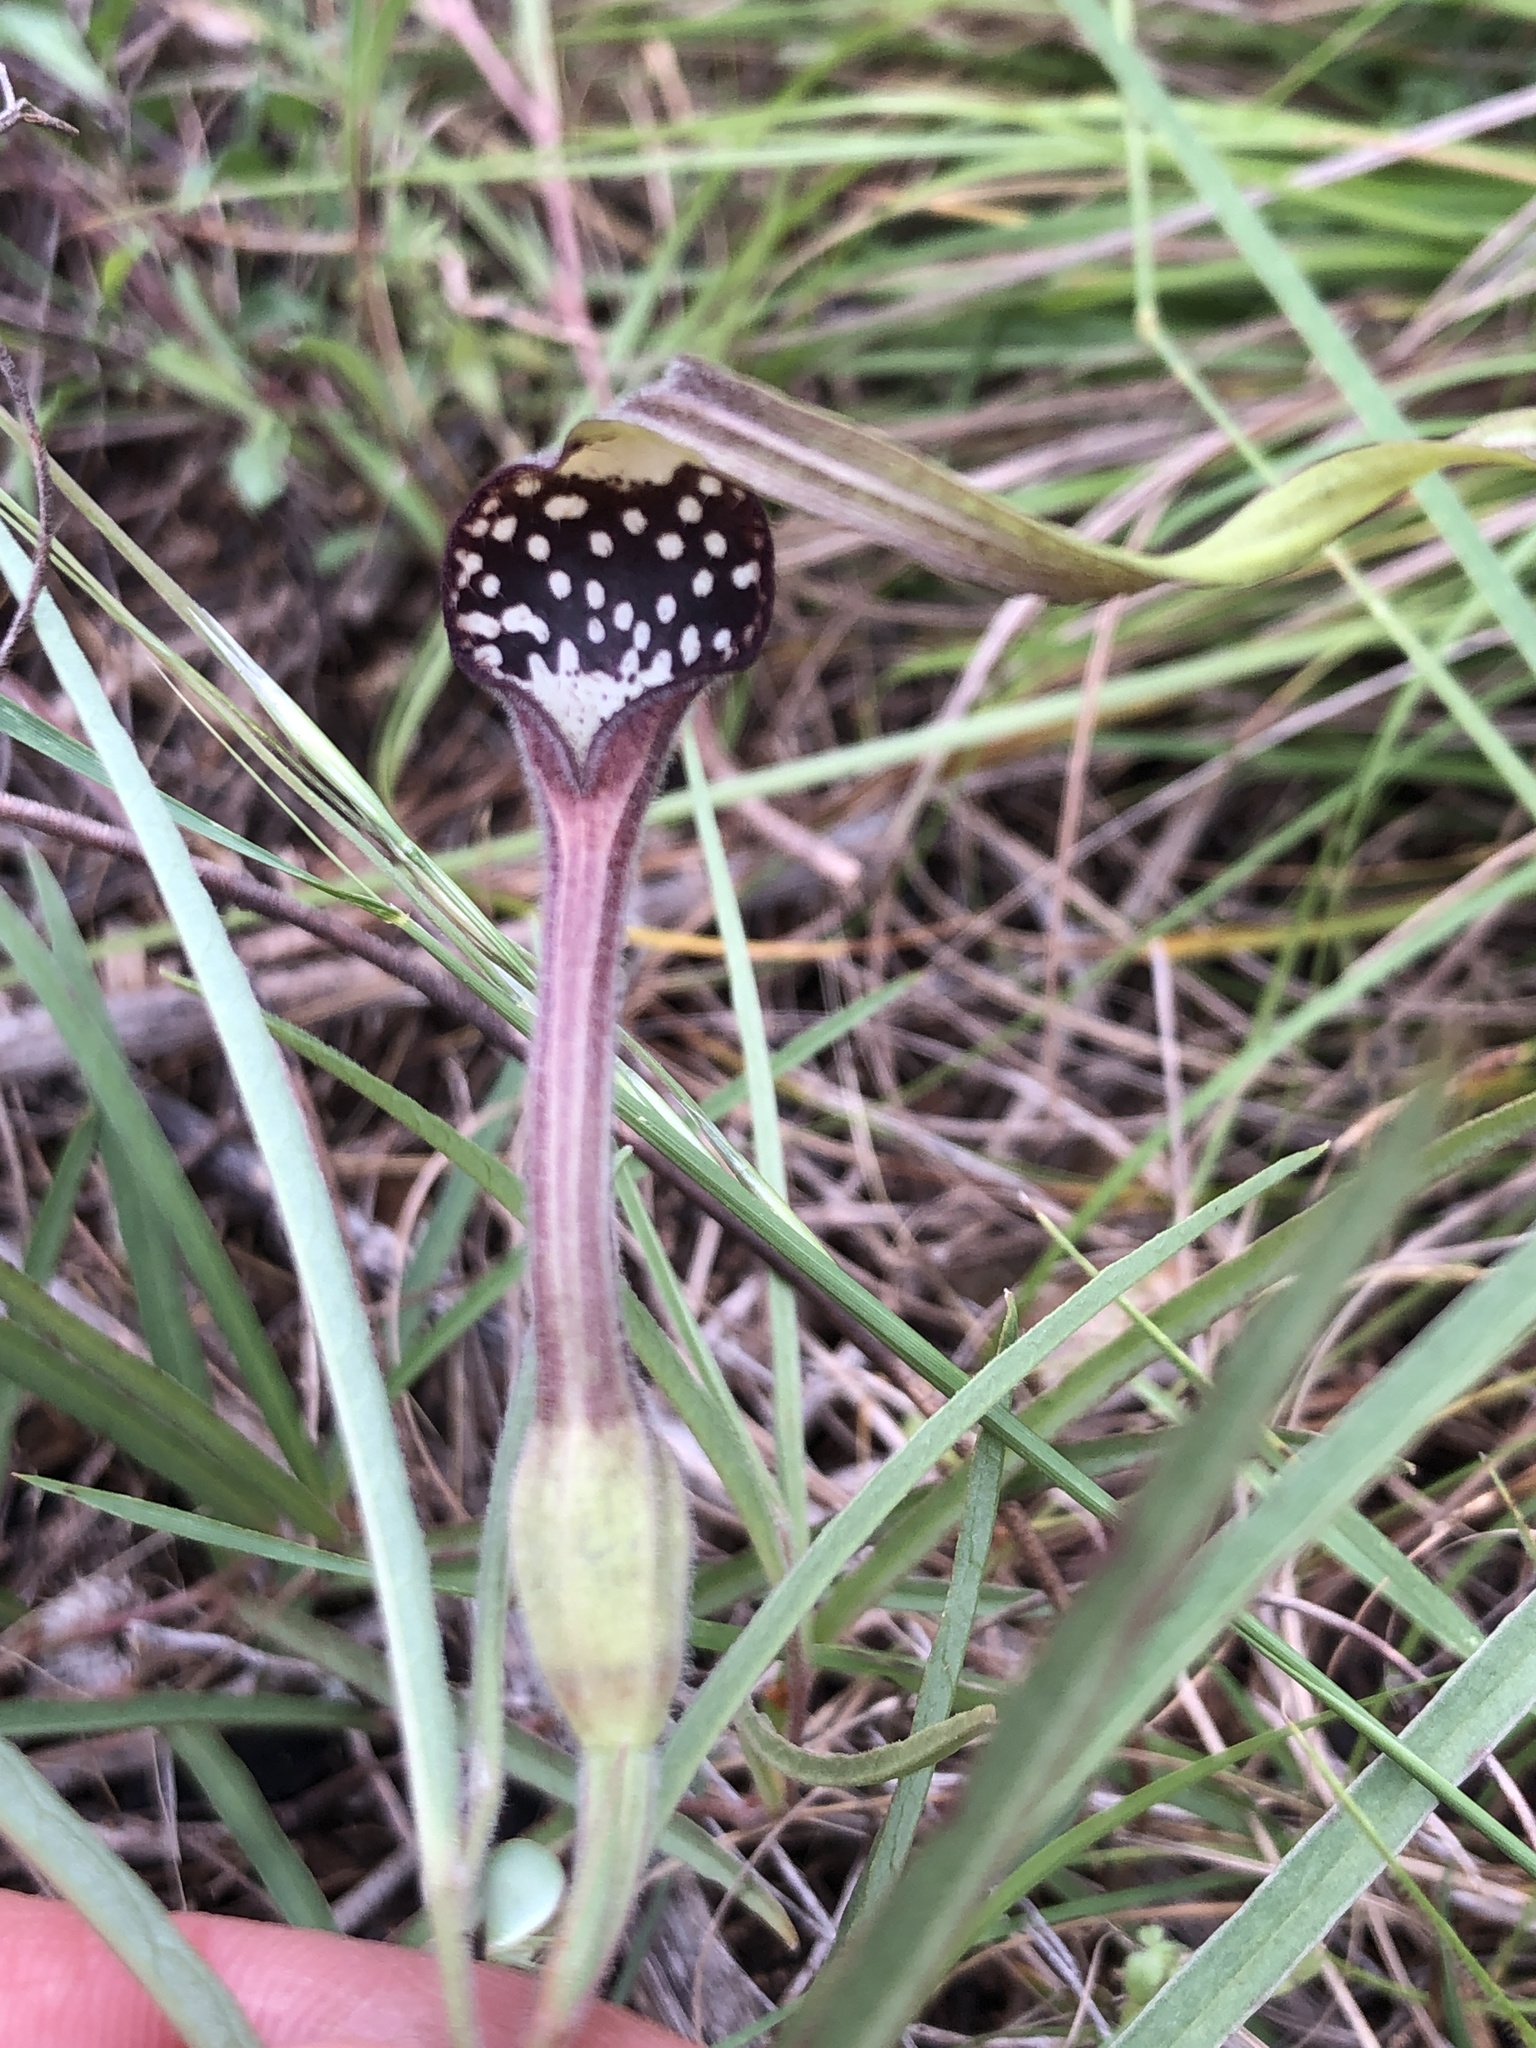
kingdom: Plantae
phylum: Tracheophyta
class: Magnoliopsida
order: Piperales
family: Aristolochiaceae
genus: Aristolochia
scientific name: Aristolochia erecta
